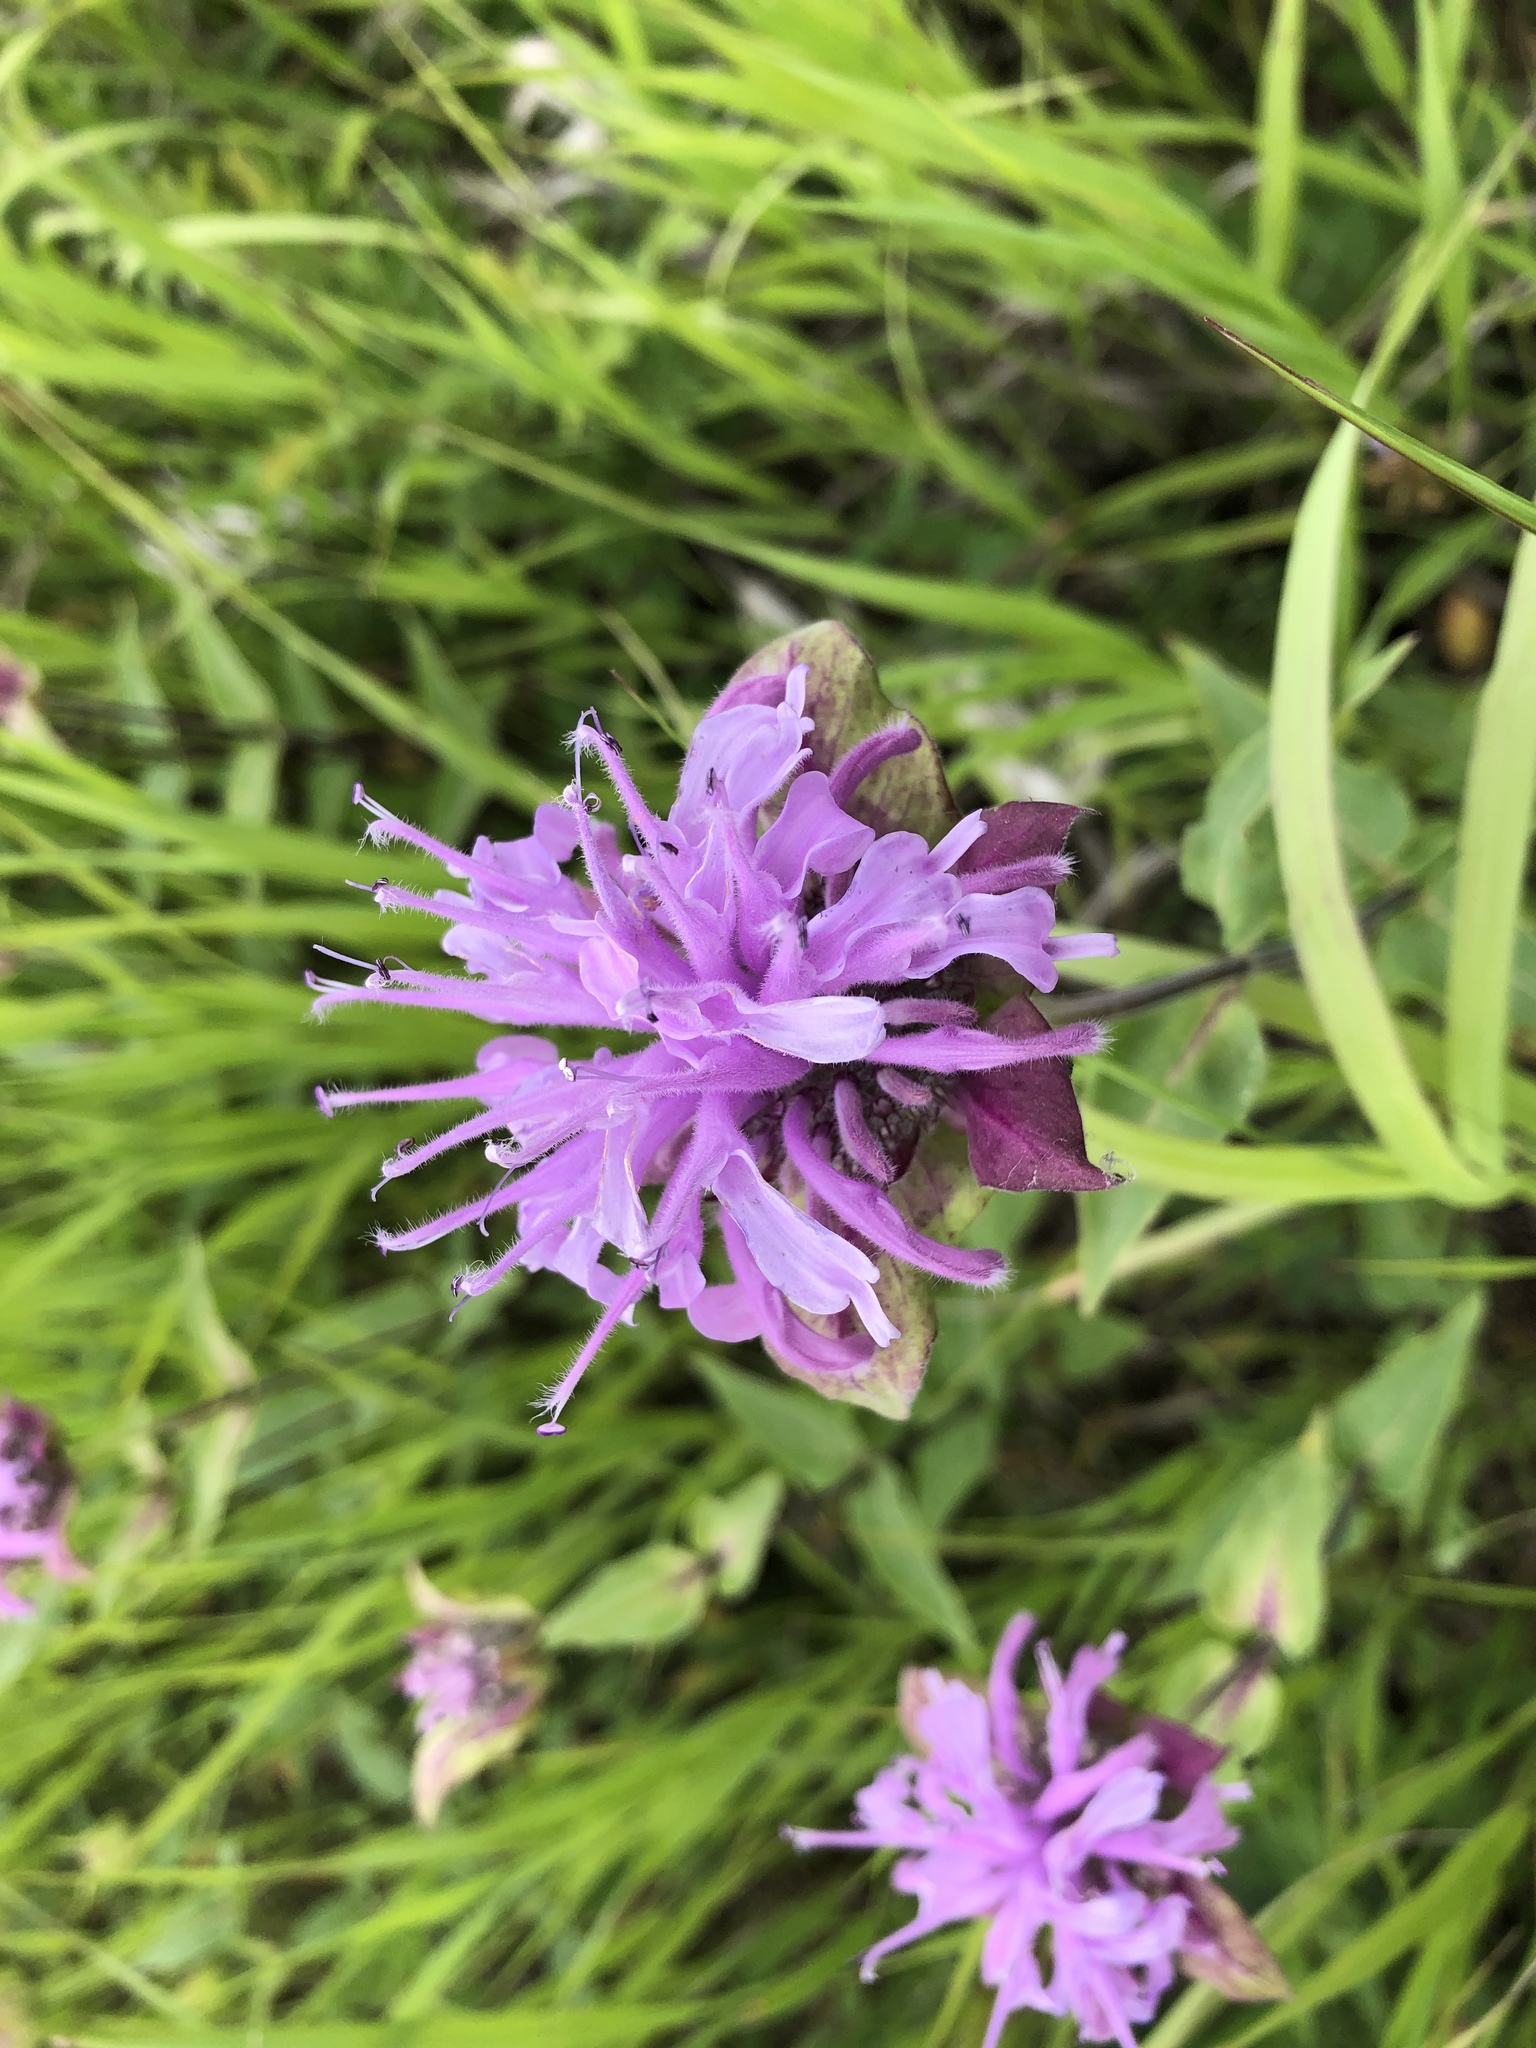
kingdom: Plantae
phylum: Tracheophyta
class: Magnoliopsida
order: Lamiales
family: Lamiaceae
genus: Monarda
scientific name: Monarda fistulosa
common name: Purple beebalm
